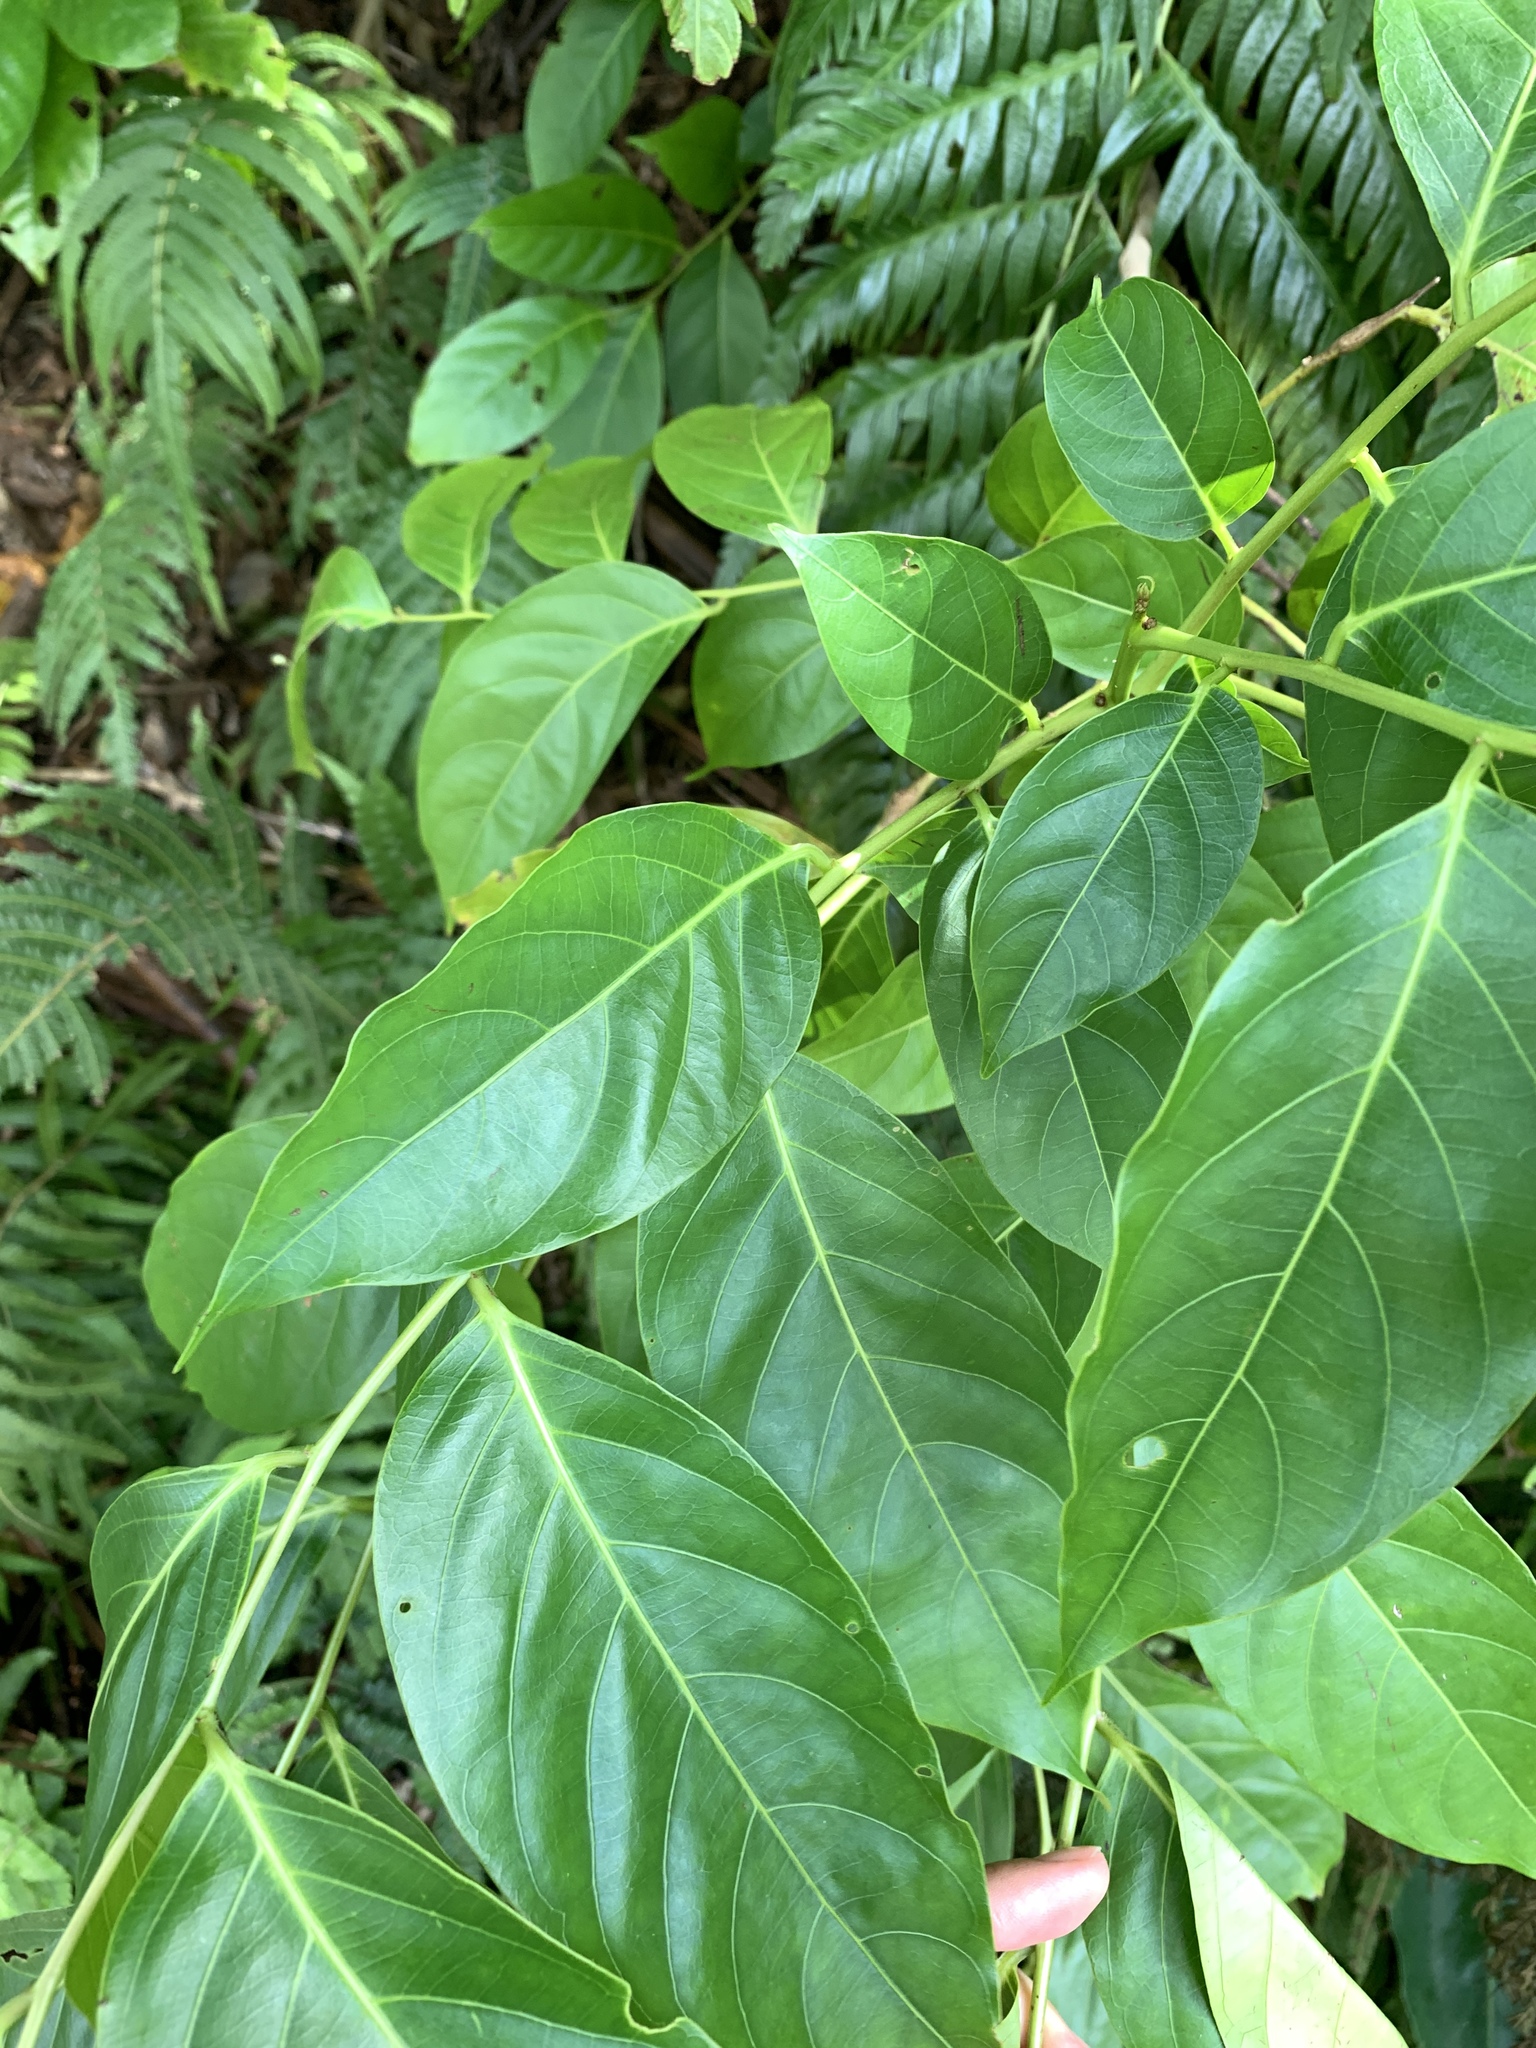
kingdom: Plantae
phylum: Tracheophyta
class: Magnoliopsida
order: Malpighiales
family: Phyllanthaceae
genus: Glochidion
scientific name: Glochidion lanceolatum
